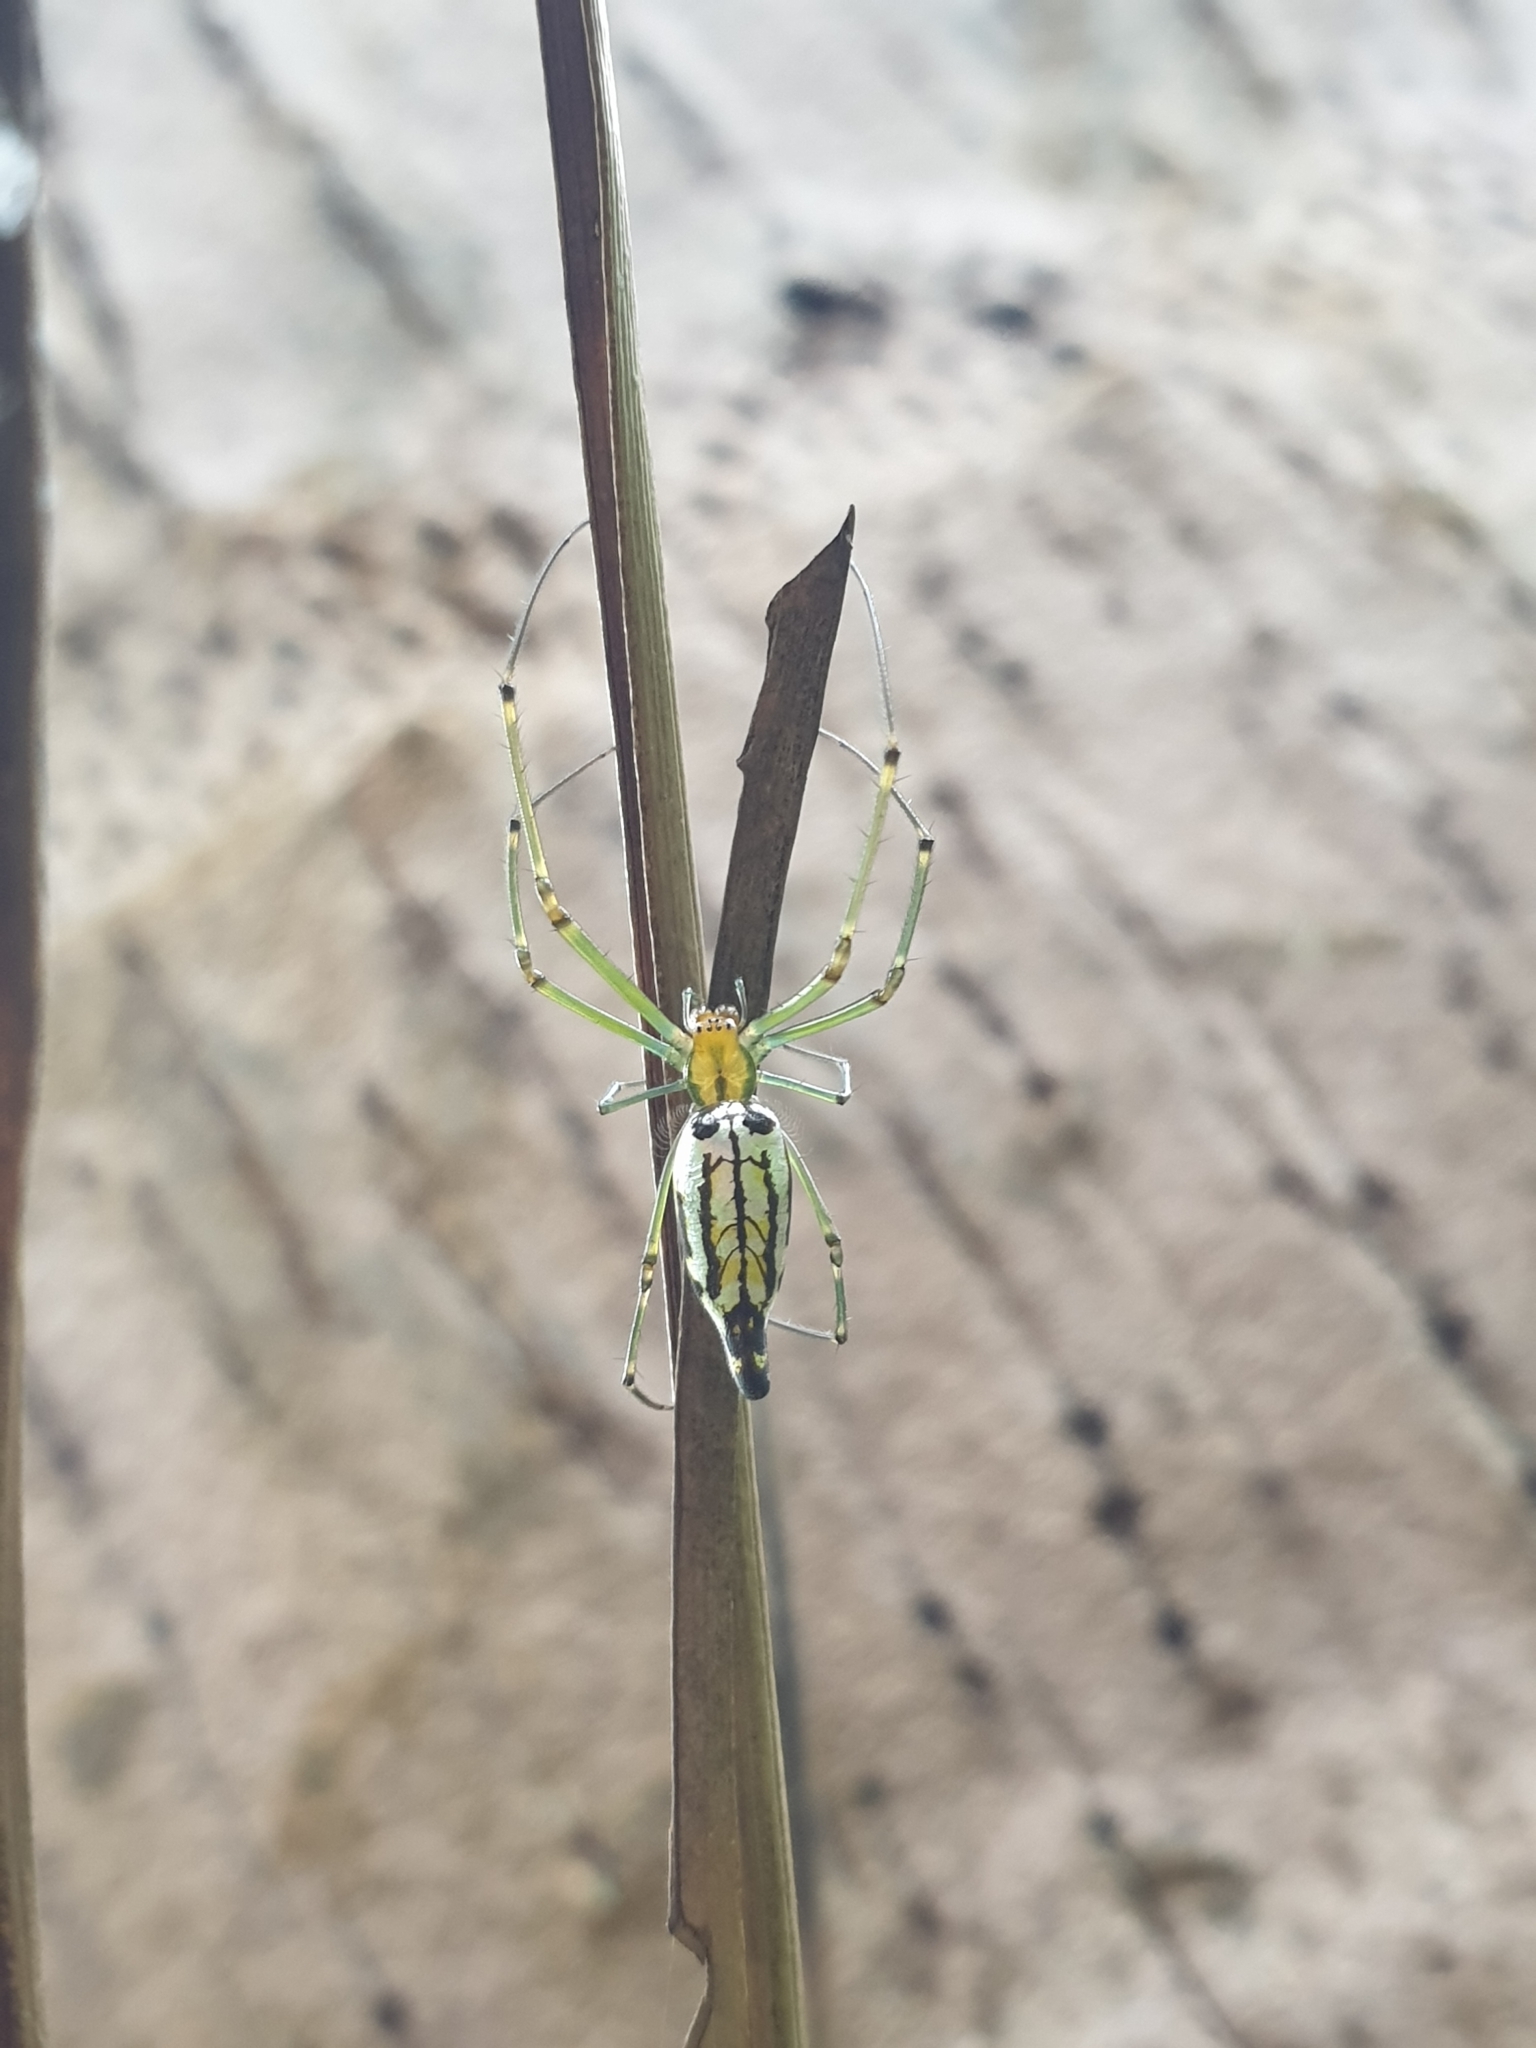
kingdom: Animalia
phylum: Arthropoda
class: Arachnida
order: Araneae
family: Tetragnathidae
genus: Leucauge
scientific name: Leucauge decorata
